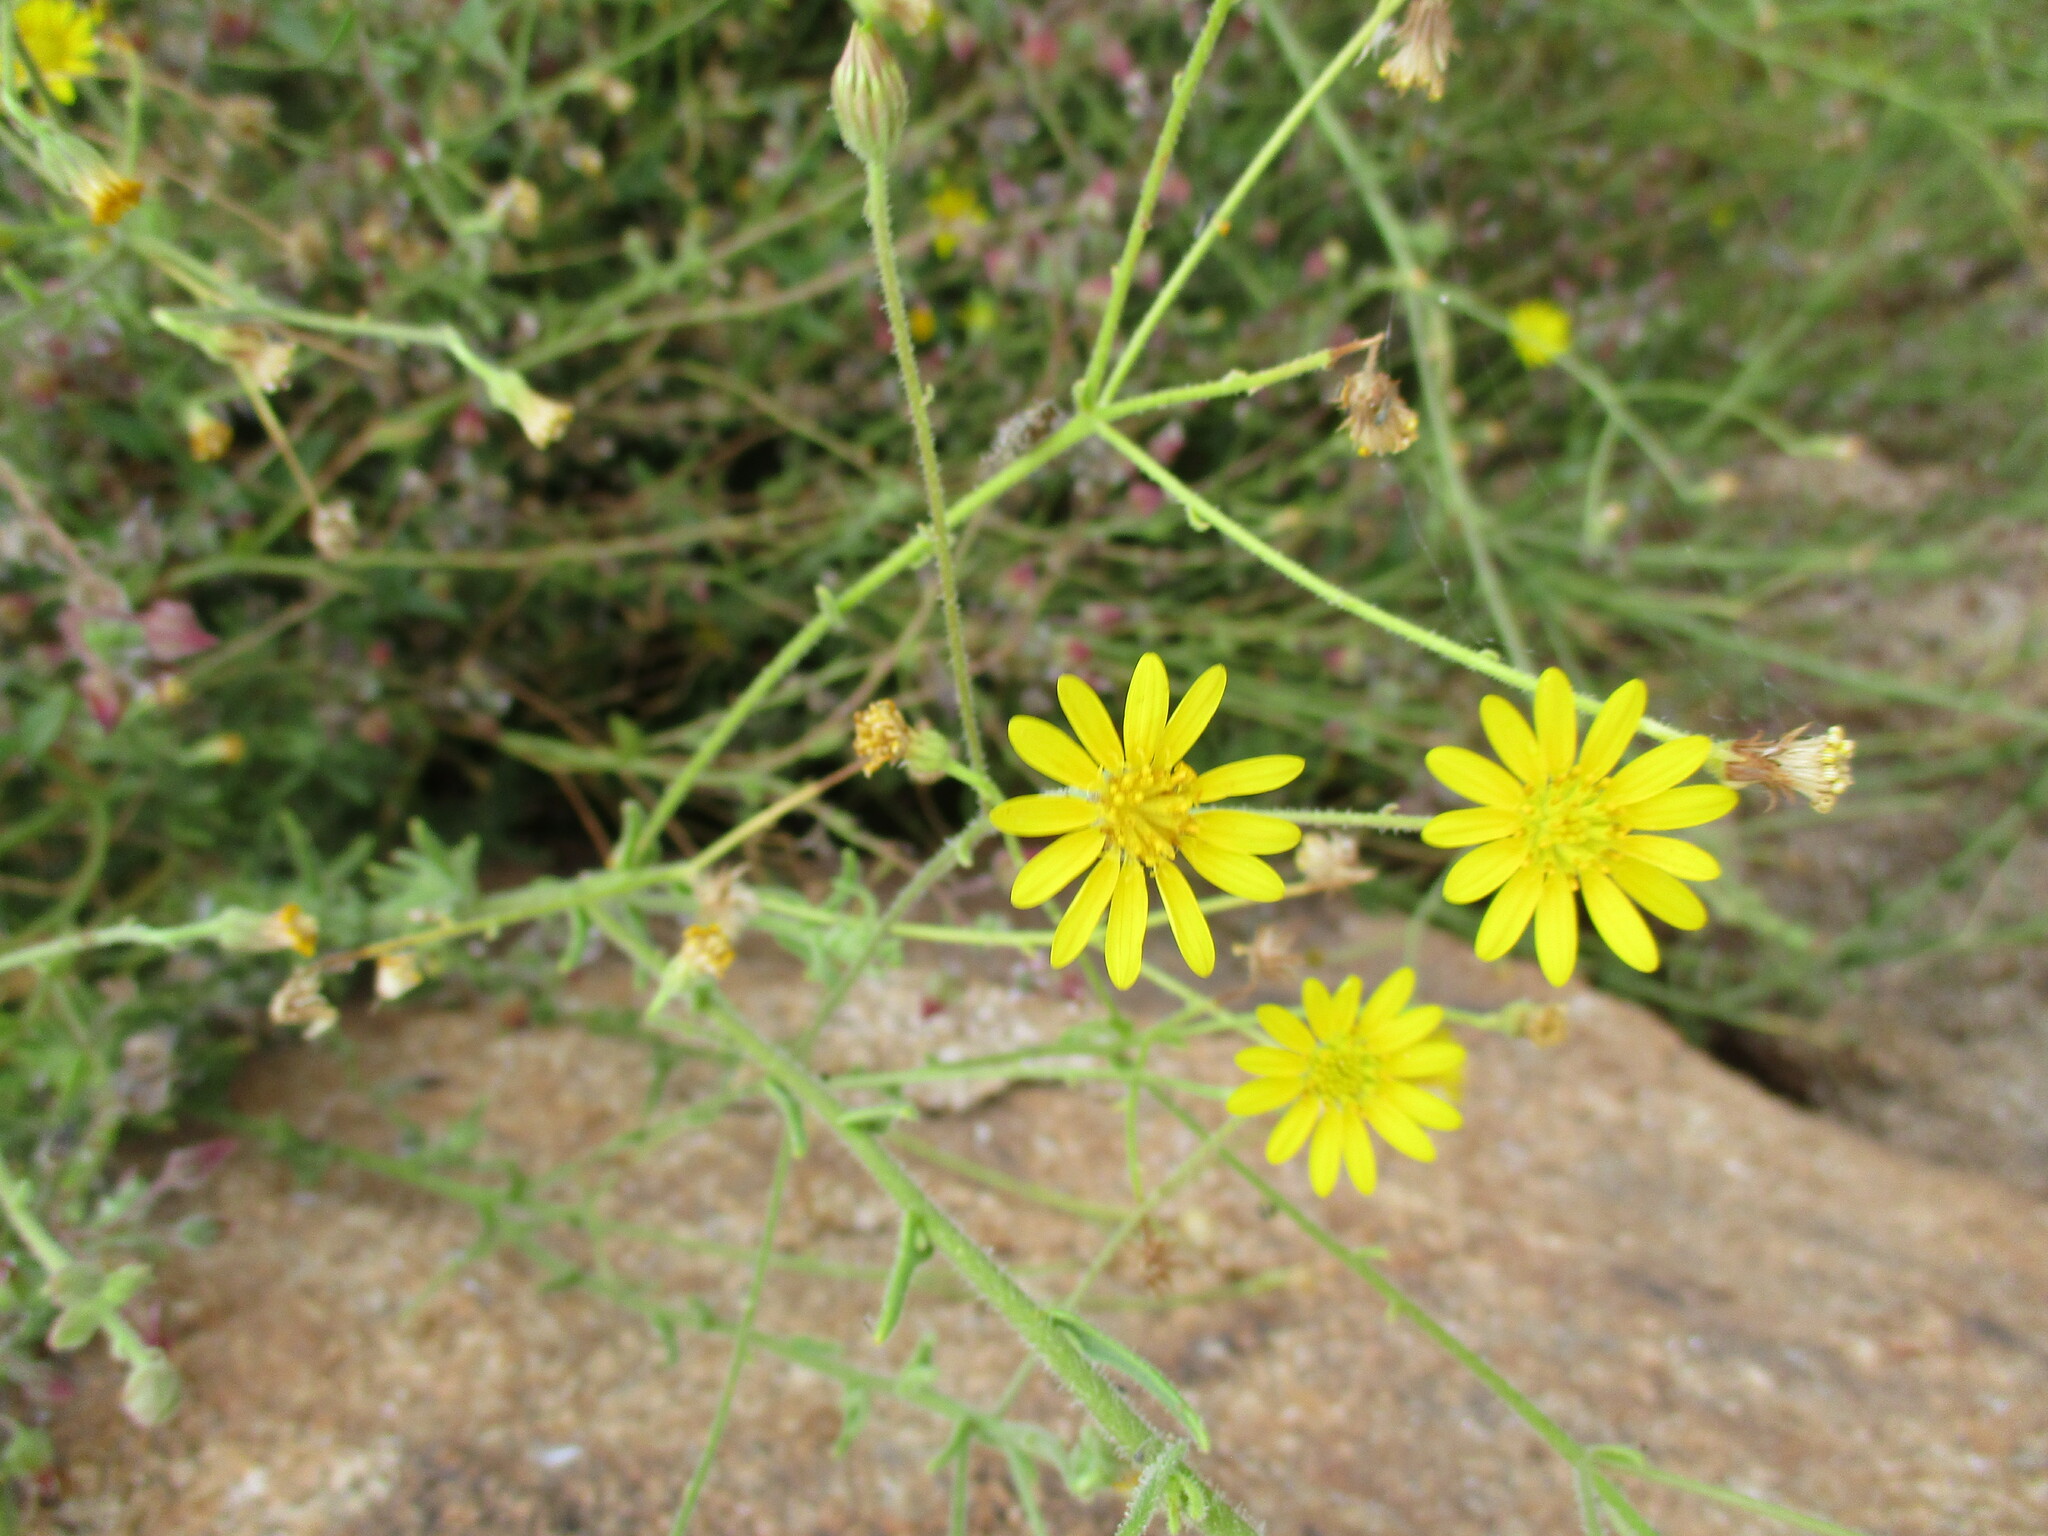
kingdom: Plantae
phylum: Tracheophyta
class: Magnoliopsida
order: Asterales
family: Asteraceae
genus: Osteospermum
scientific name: Osteospermum microcarpum
